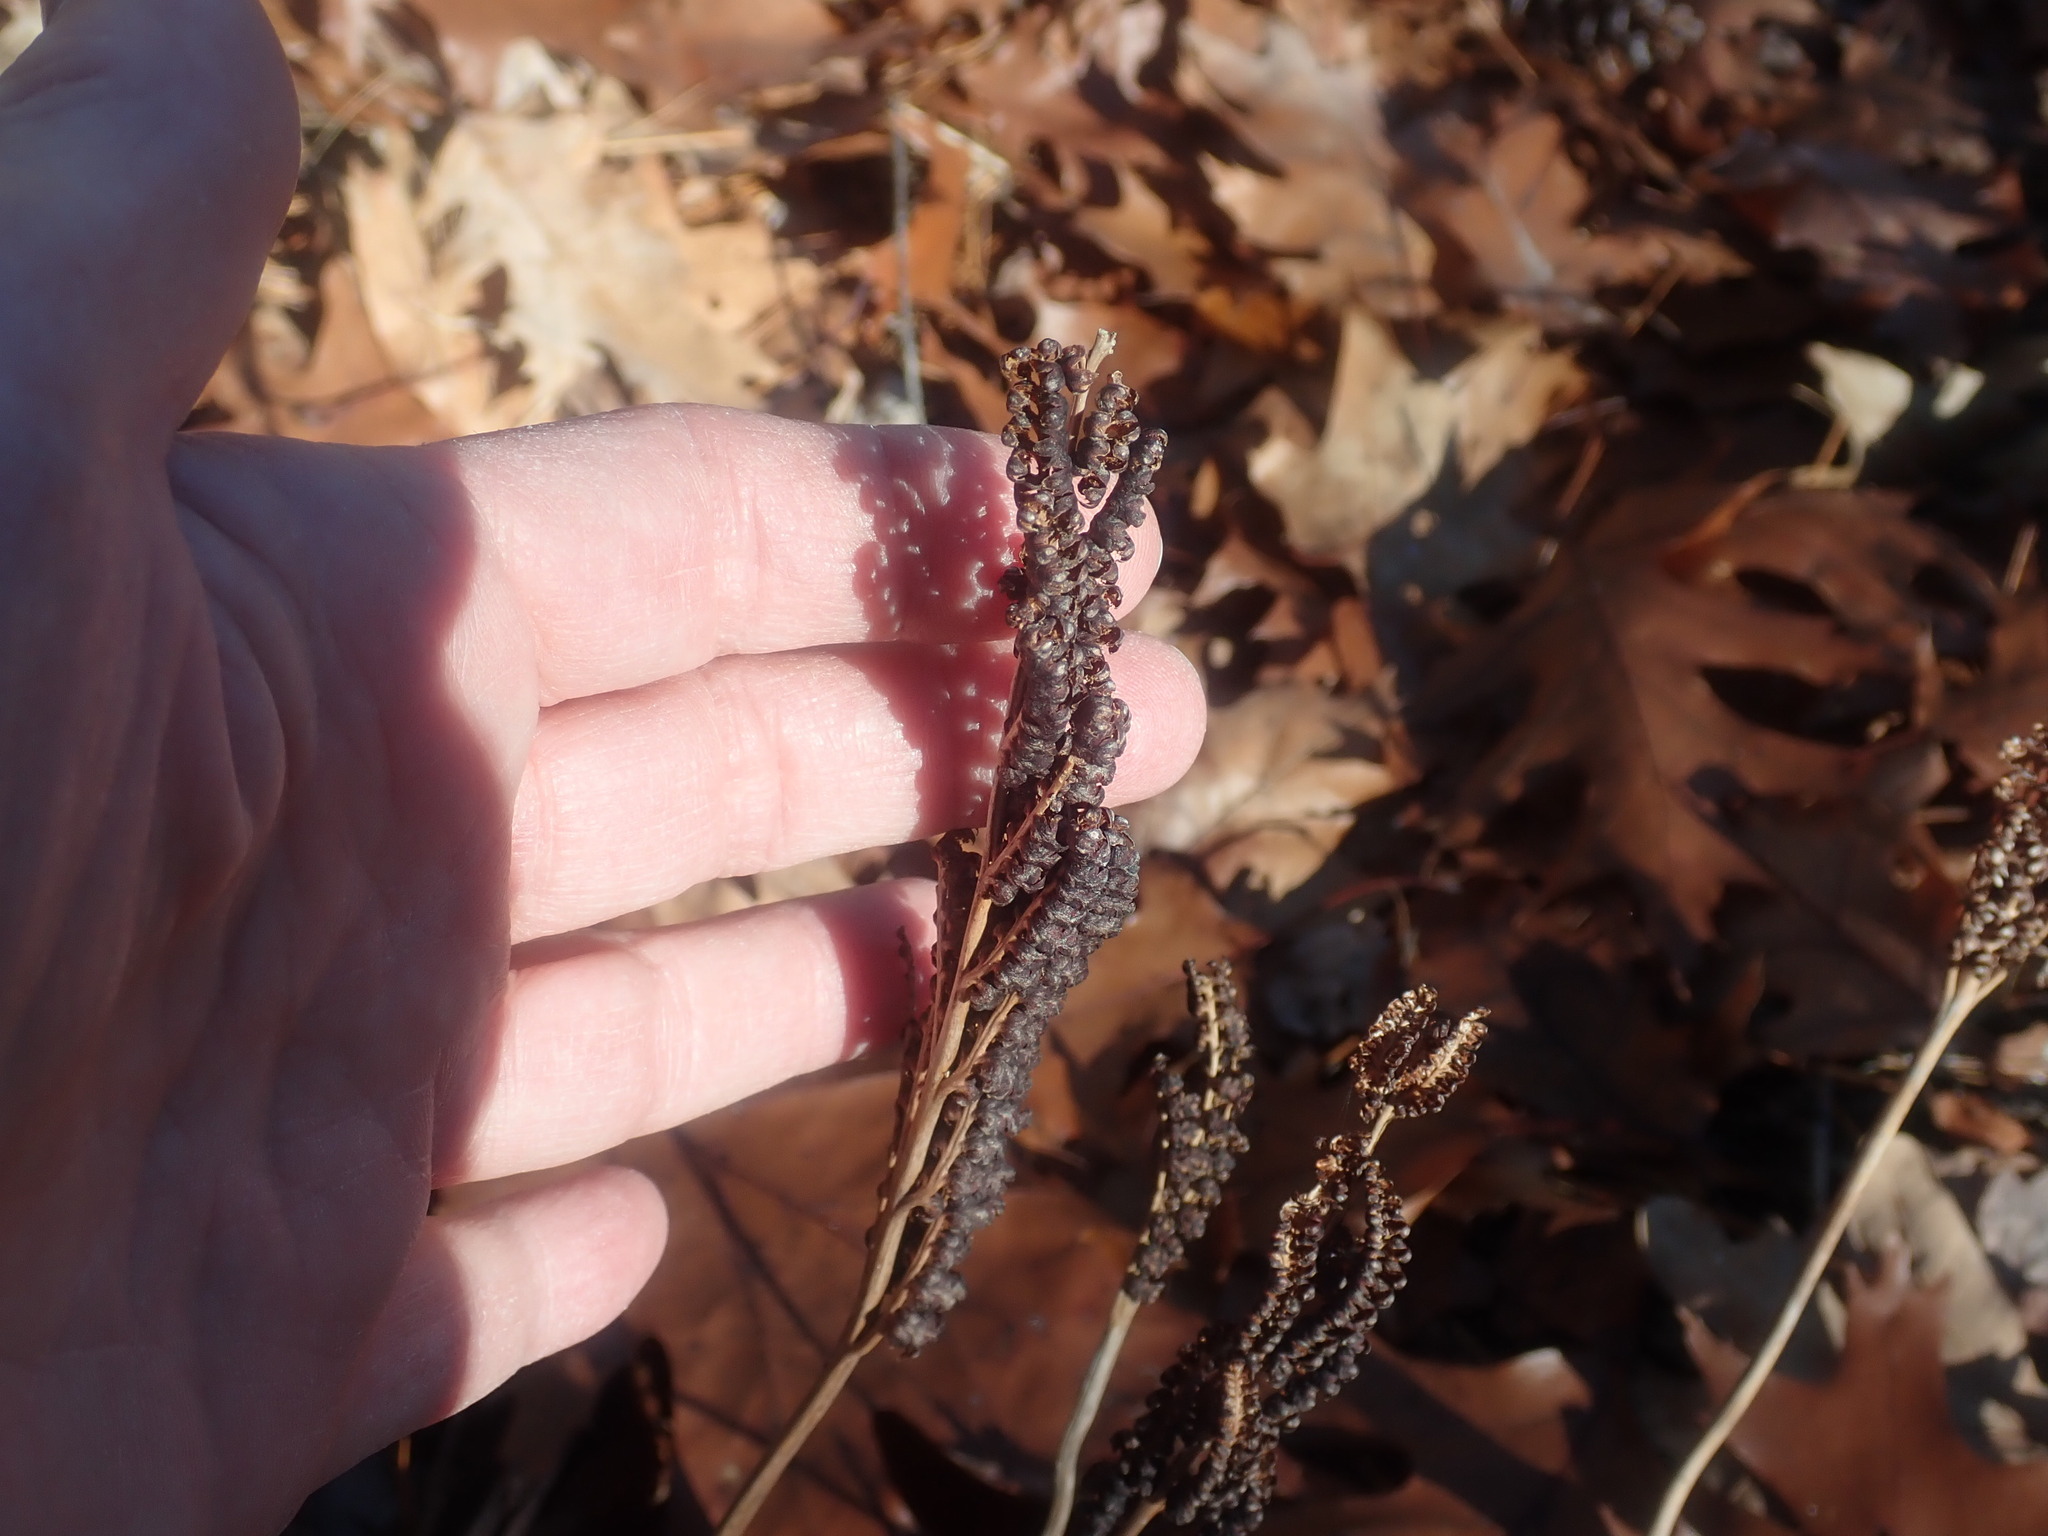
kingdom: Plantae
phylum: Tracheophyta
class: Polypodiopsida
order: Polypodiales
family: Onocleaceae
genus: Onoclea
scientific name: Onoclea sensibilis
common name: Sensitive fern
